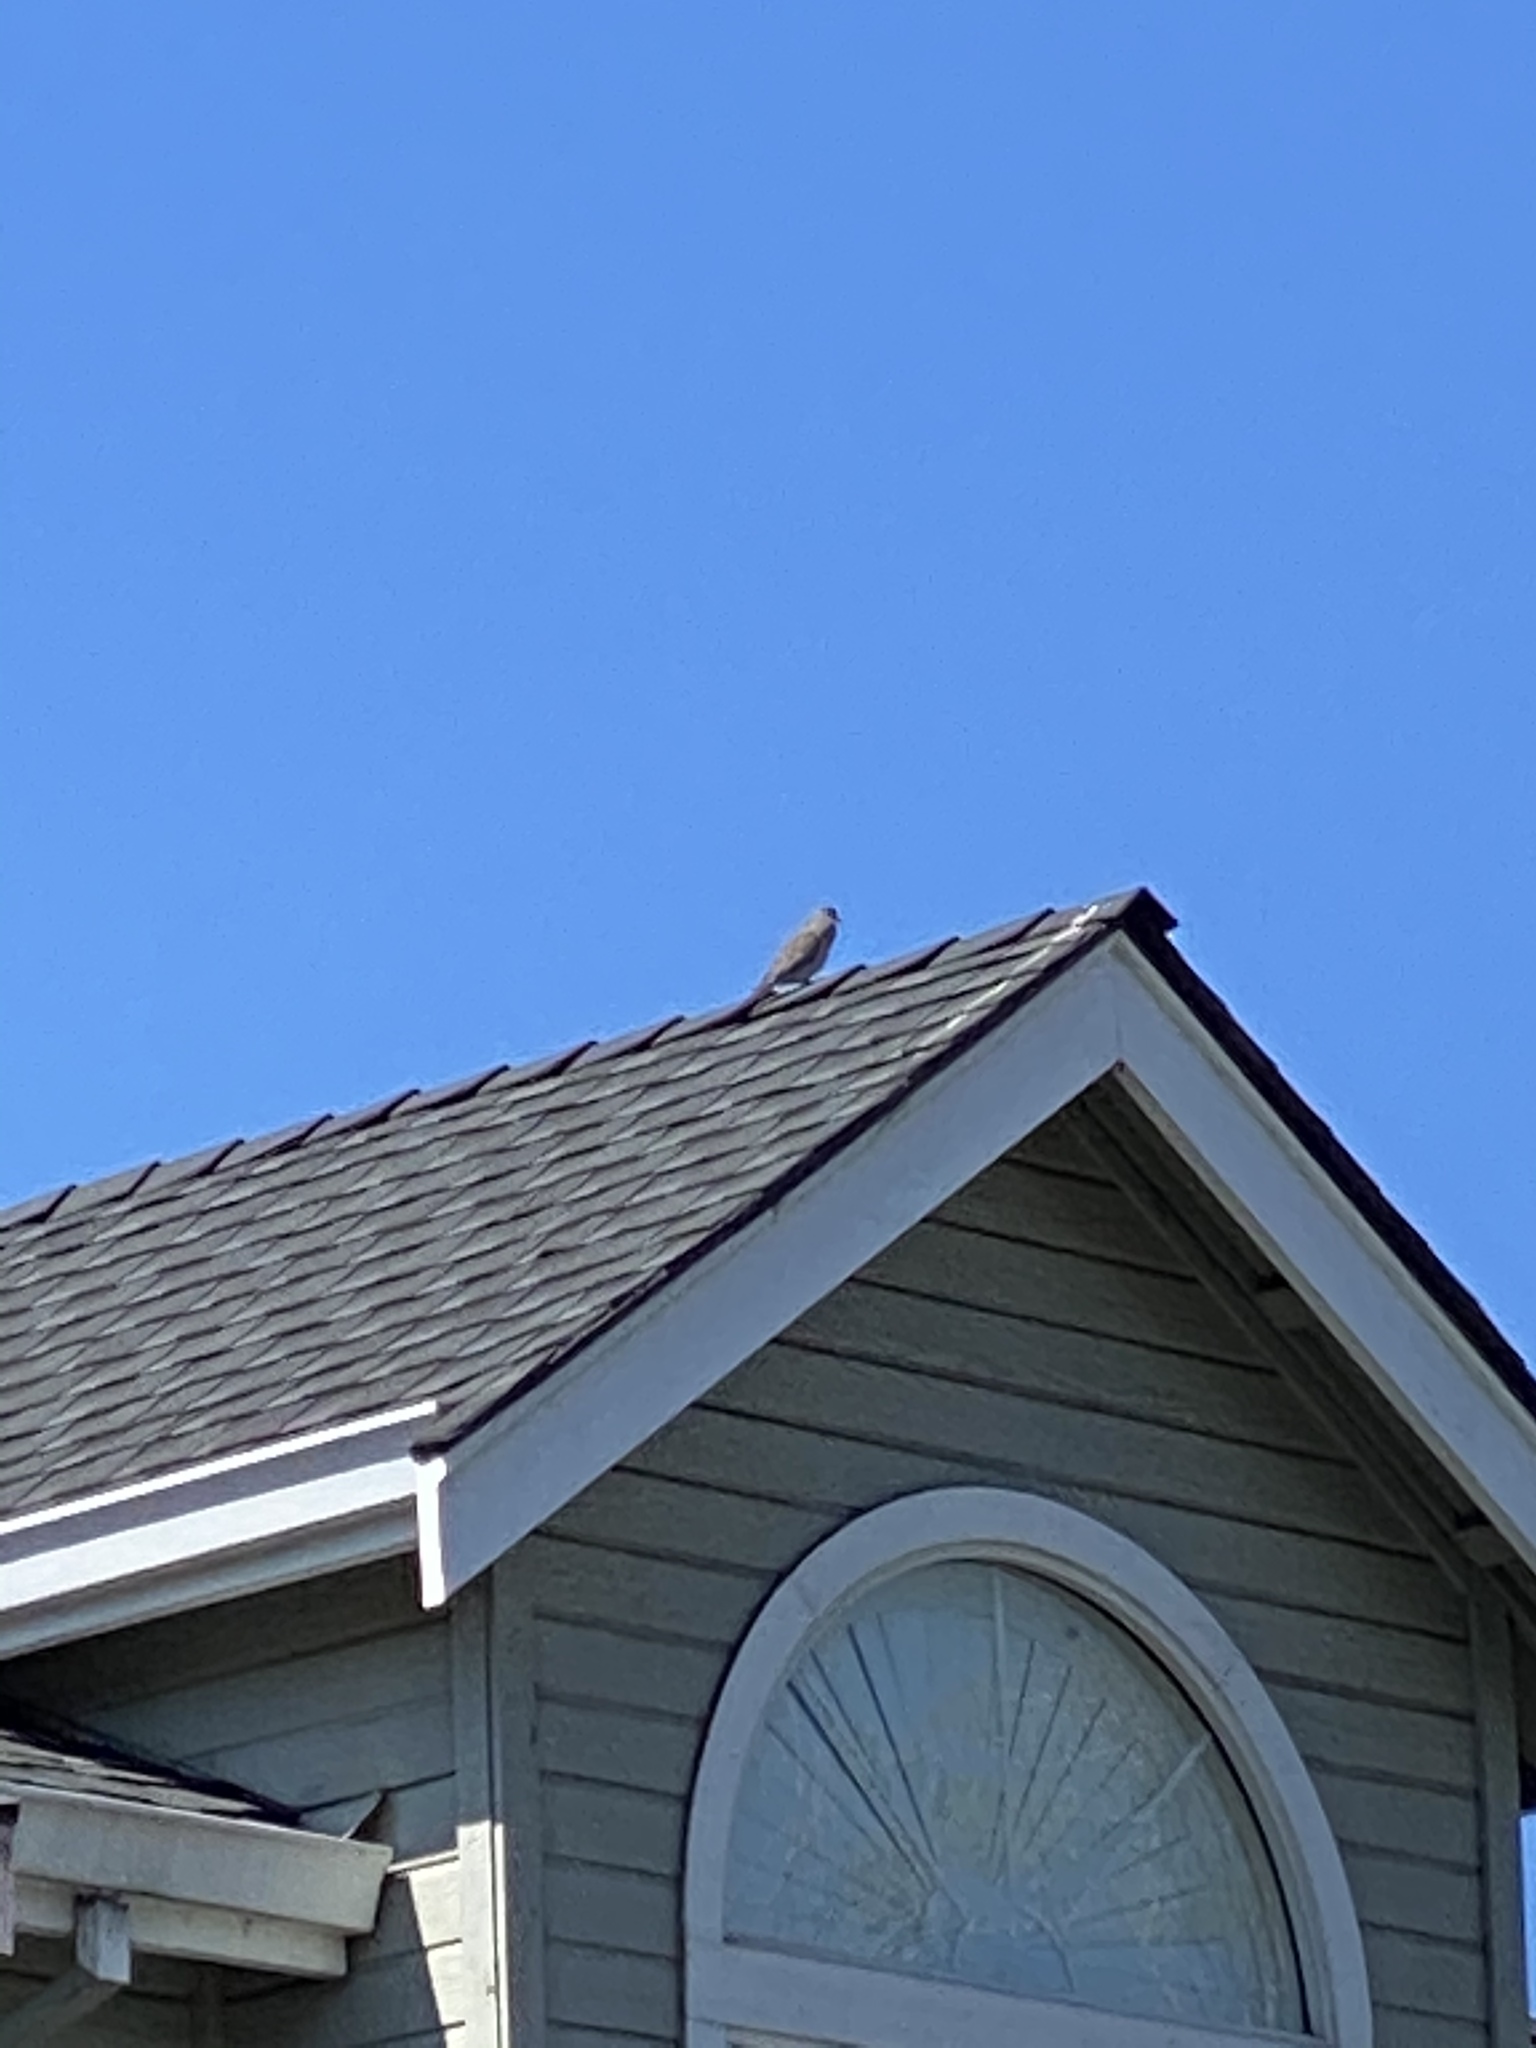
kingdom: Animalia
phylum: Chordata
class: Aves
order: Columbiformes
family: Columbidae
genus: Zenaida
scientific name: Zenaida macroura
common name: Mourning dove
